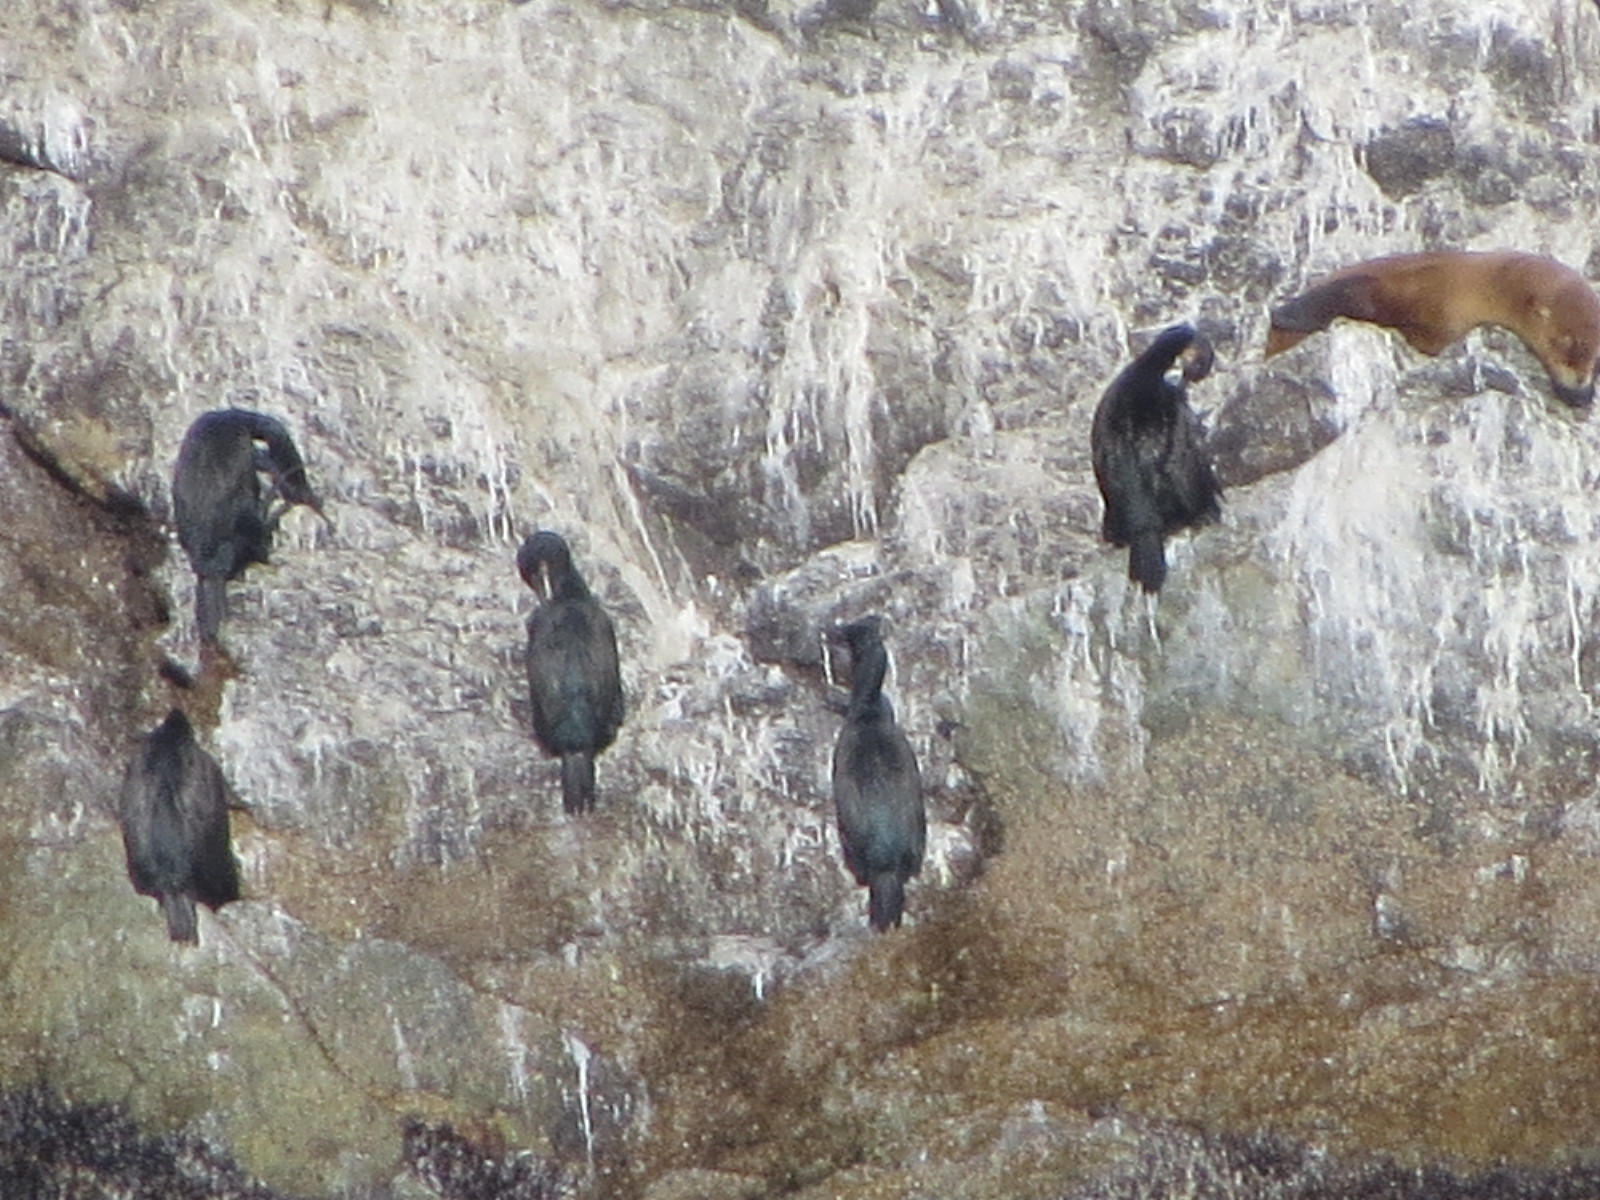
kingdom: Animalia
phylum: Chordata
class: Aves
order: Suliformes
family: Phalacrocoracidae
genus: Urile
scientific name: Urile penicillatus
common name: Brandt's cormorant
